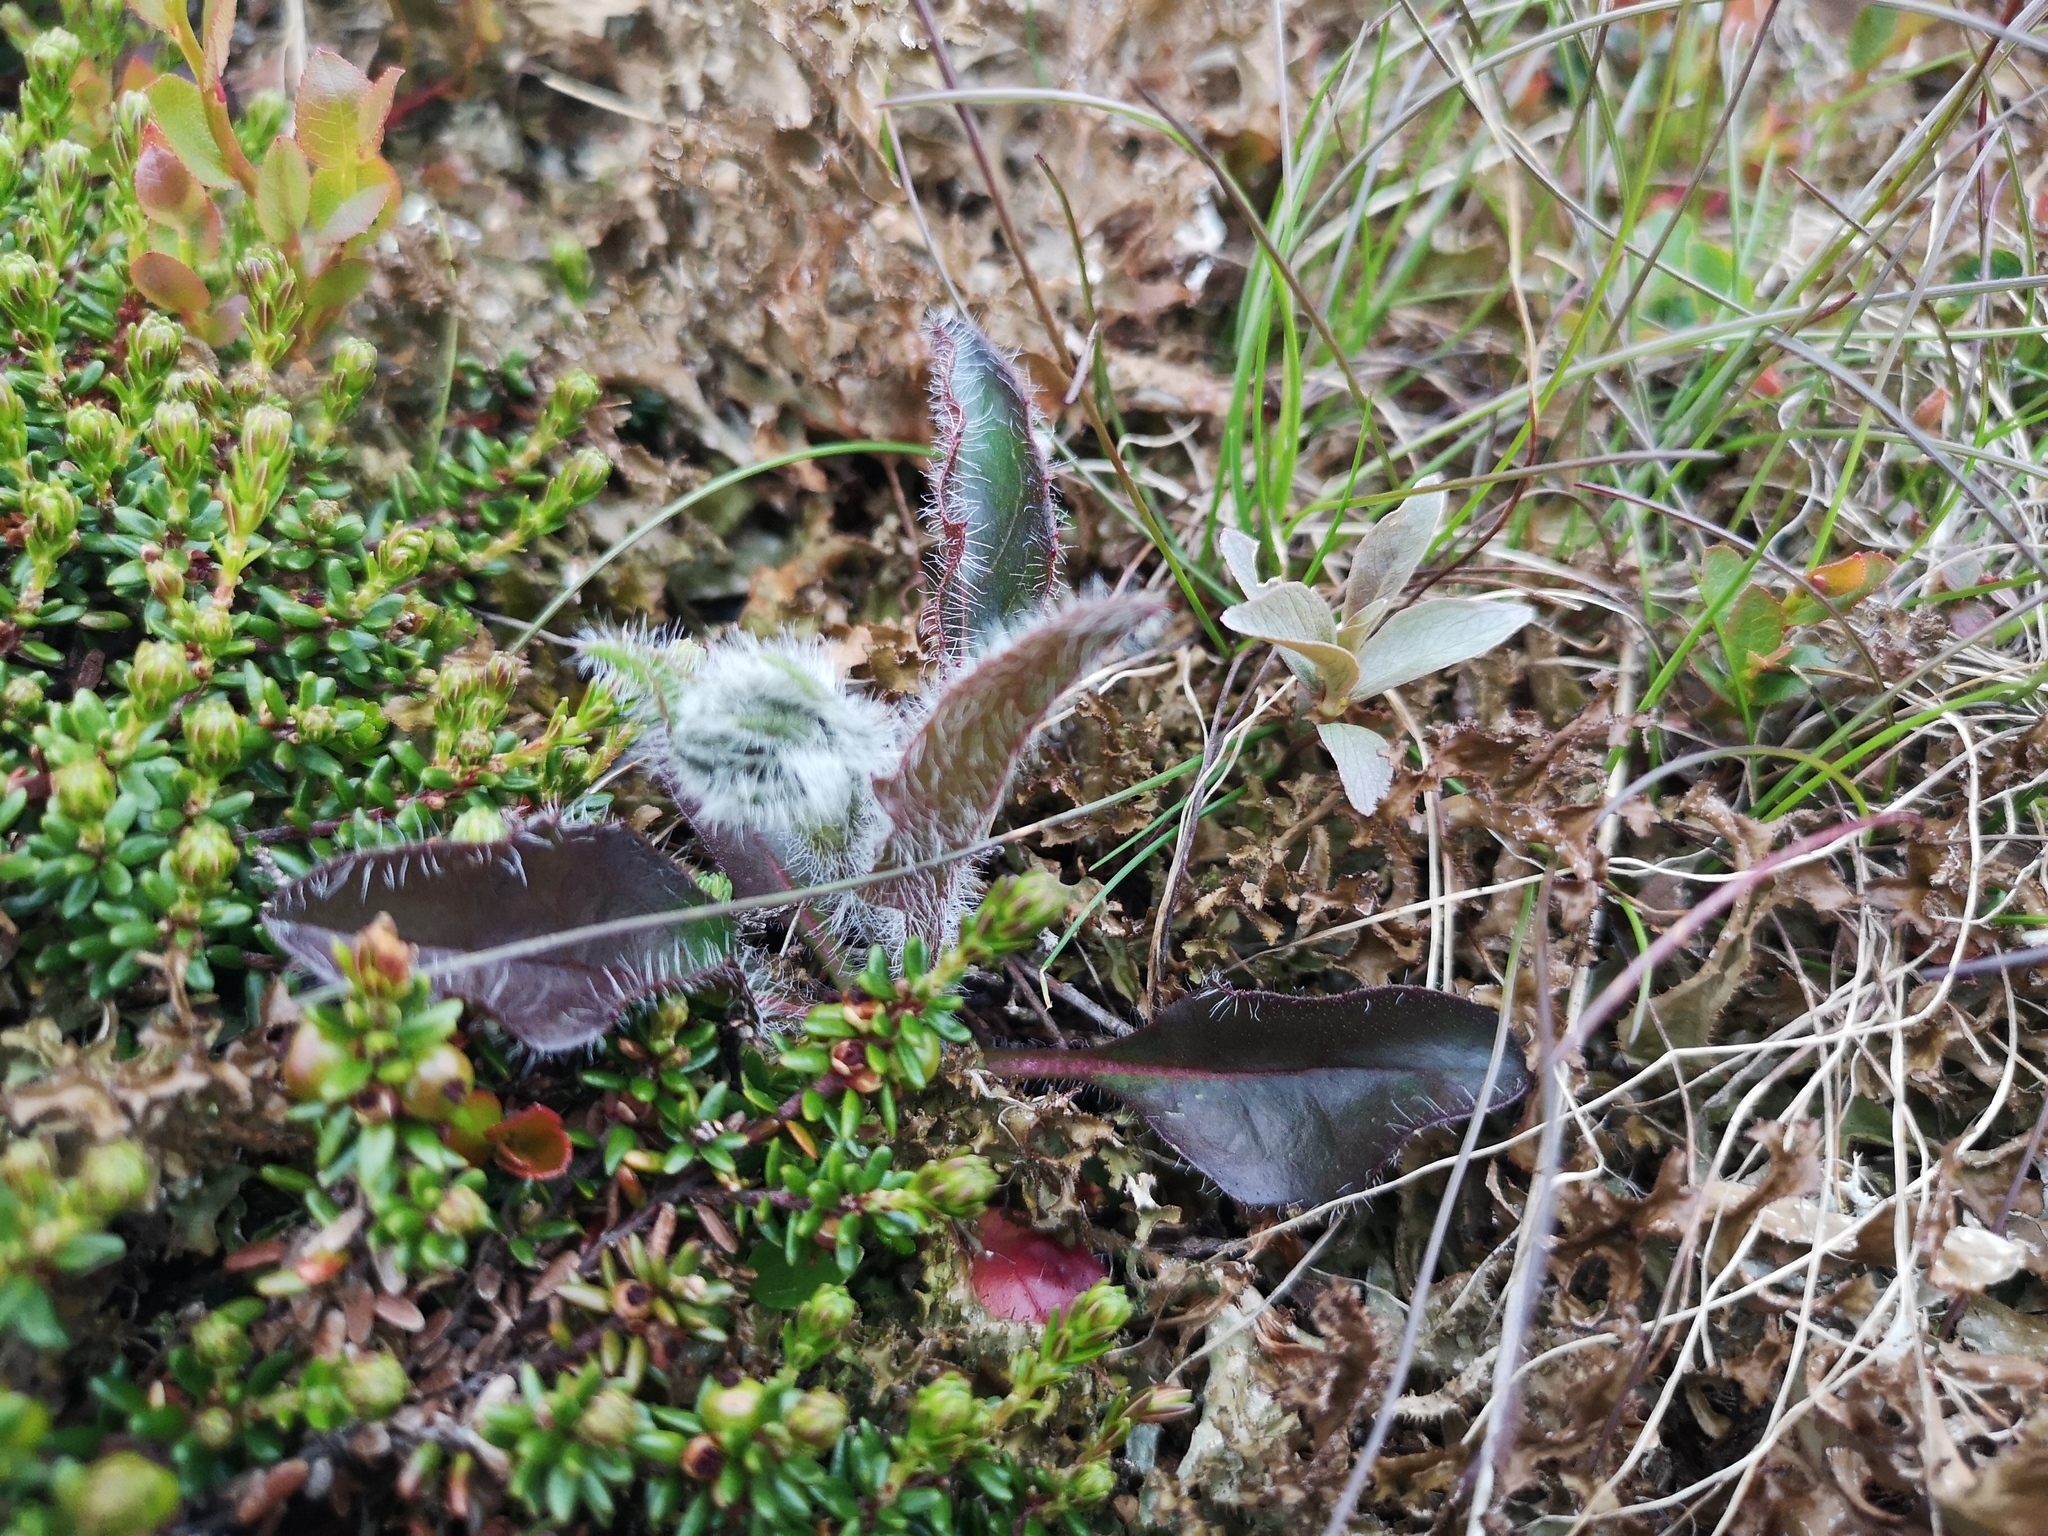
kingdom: Plantae
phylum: Tracheophyta
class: Magnoliopsida
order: Asterales
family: Asteraceae
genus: Hieracium
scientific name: Hieracium alpinum
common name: Alpine hawkweed
